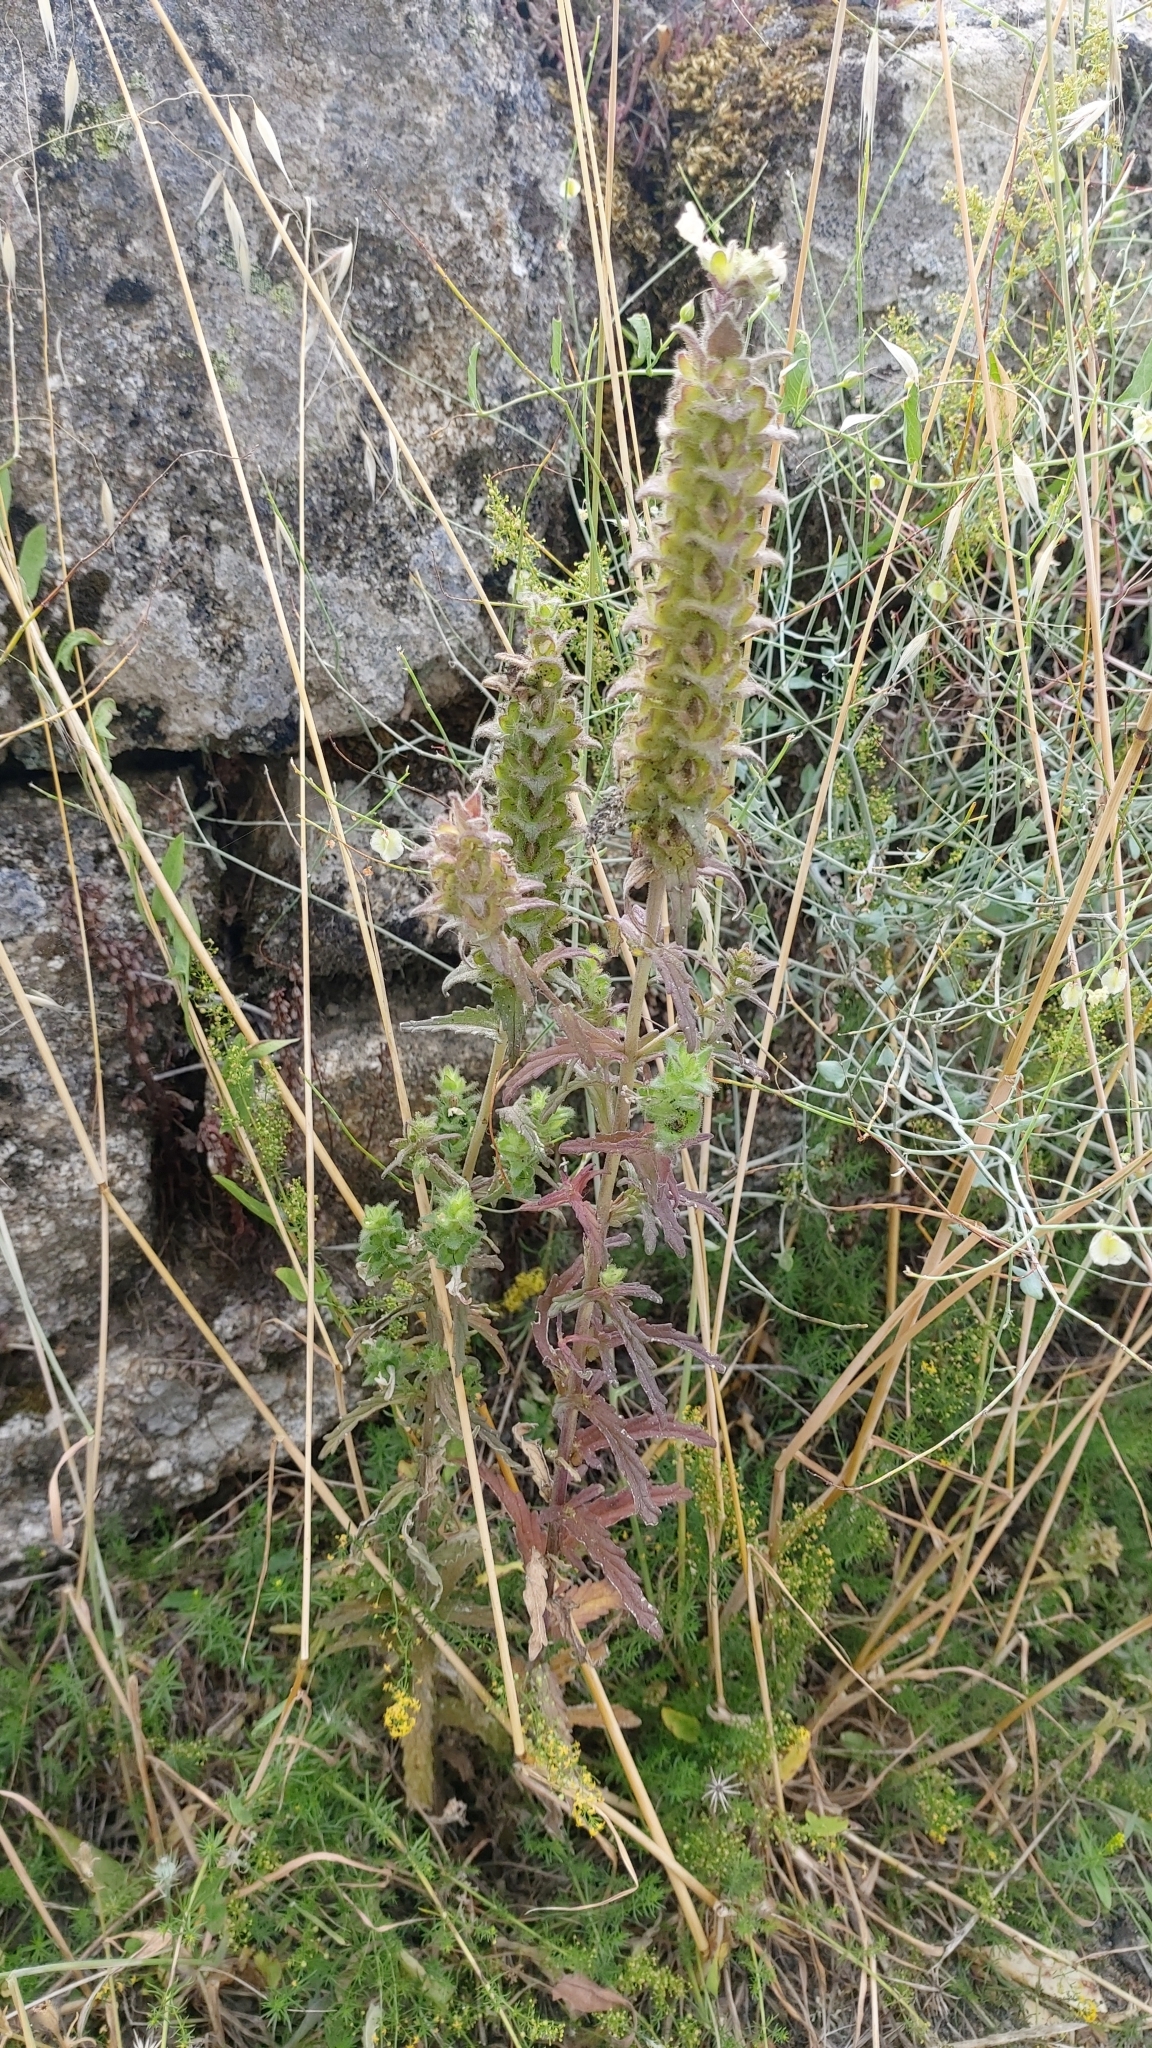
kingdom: Plantae
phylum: Tracheophyta
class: Magnoliopsida
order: Lamiales
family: Orobanchaceae
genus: Bellardia
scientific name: Bellardia trixago
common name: Mediterranean lineseed
